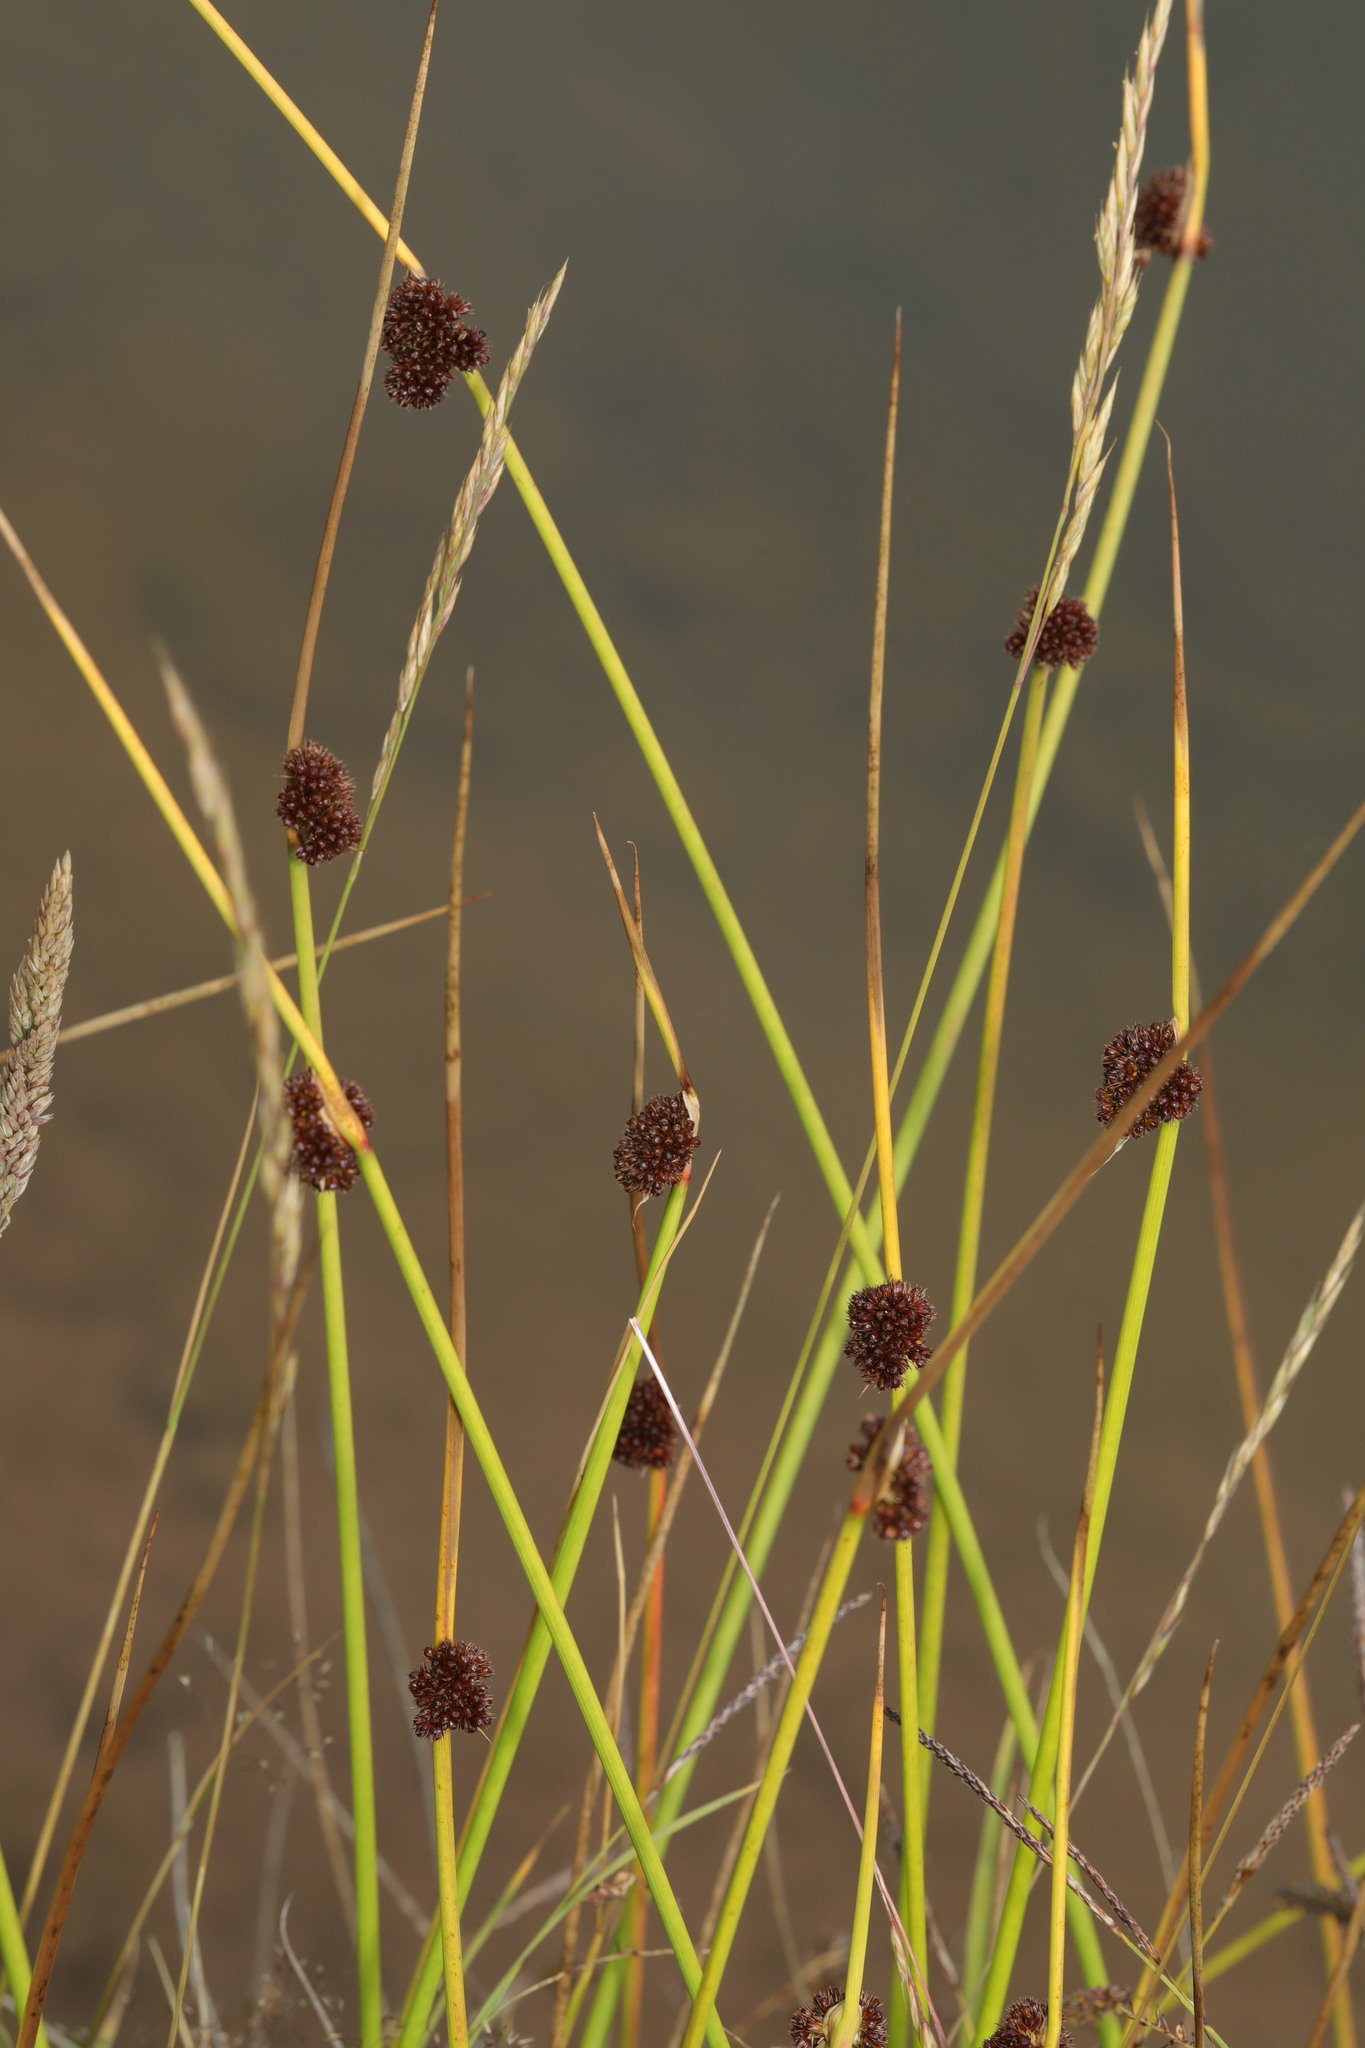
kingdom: Plantae
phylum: Tracheophyta
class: Liliopsida
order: Poales
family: Juncaceae
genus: Juncus
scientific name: Juncus effusus
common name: Soft rush
